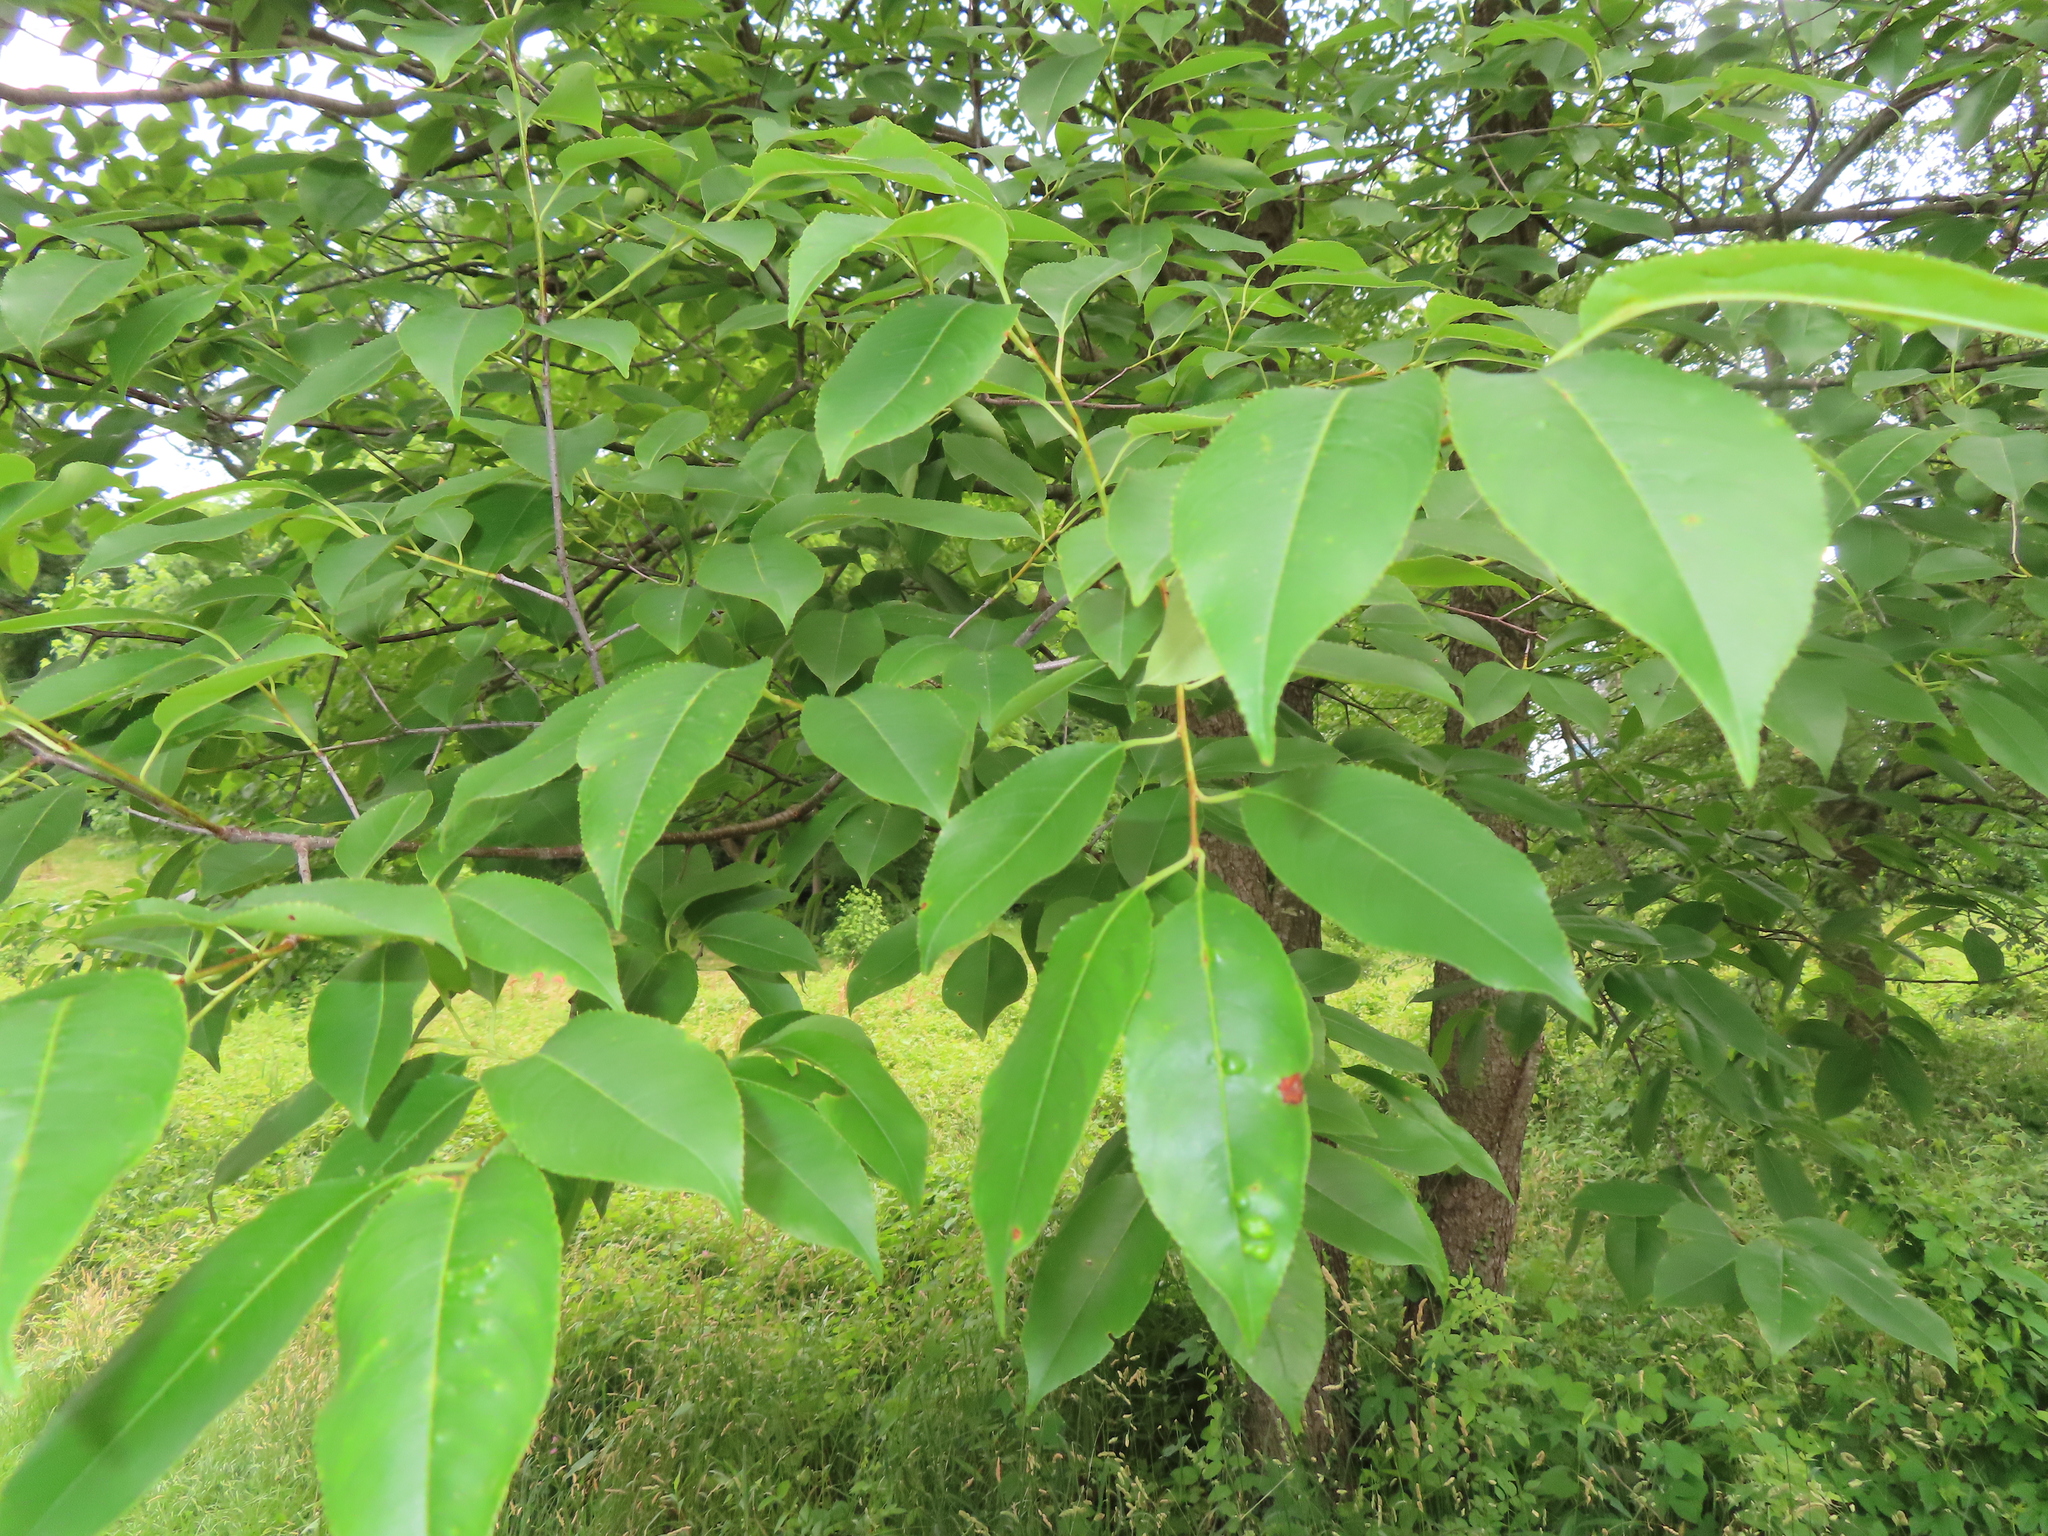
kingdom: Plantae
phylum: Tracheophyta
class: Magnoliopsida
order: Rosales
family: Rosaceae
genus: Prunus
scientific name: Prunus serotina
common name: Black cherry
